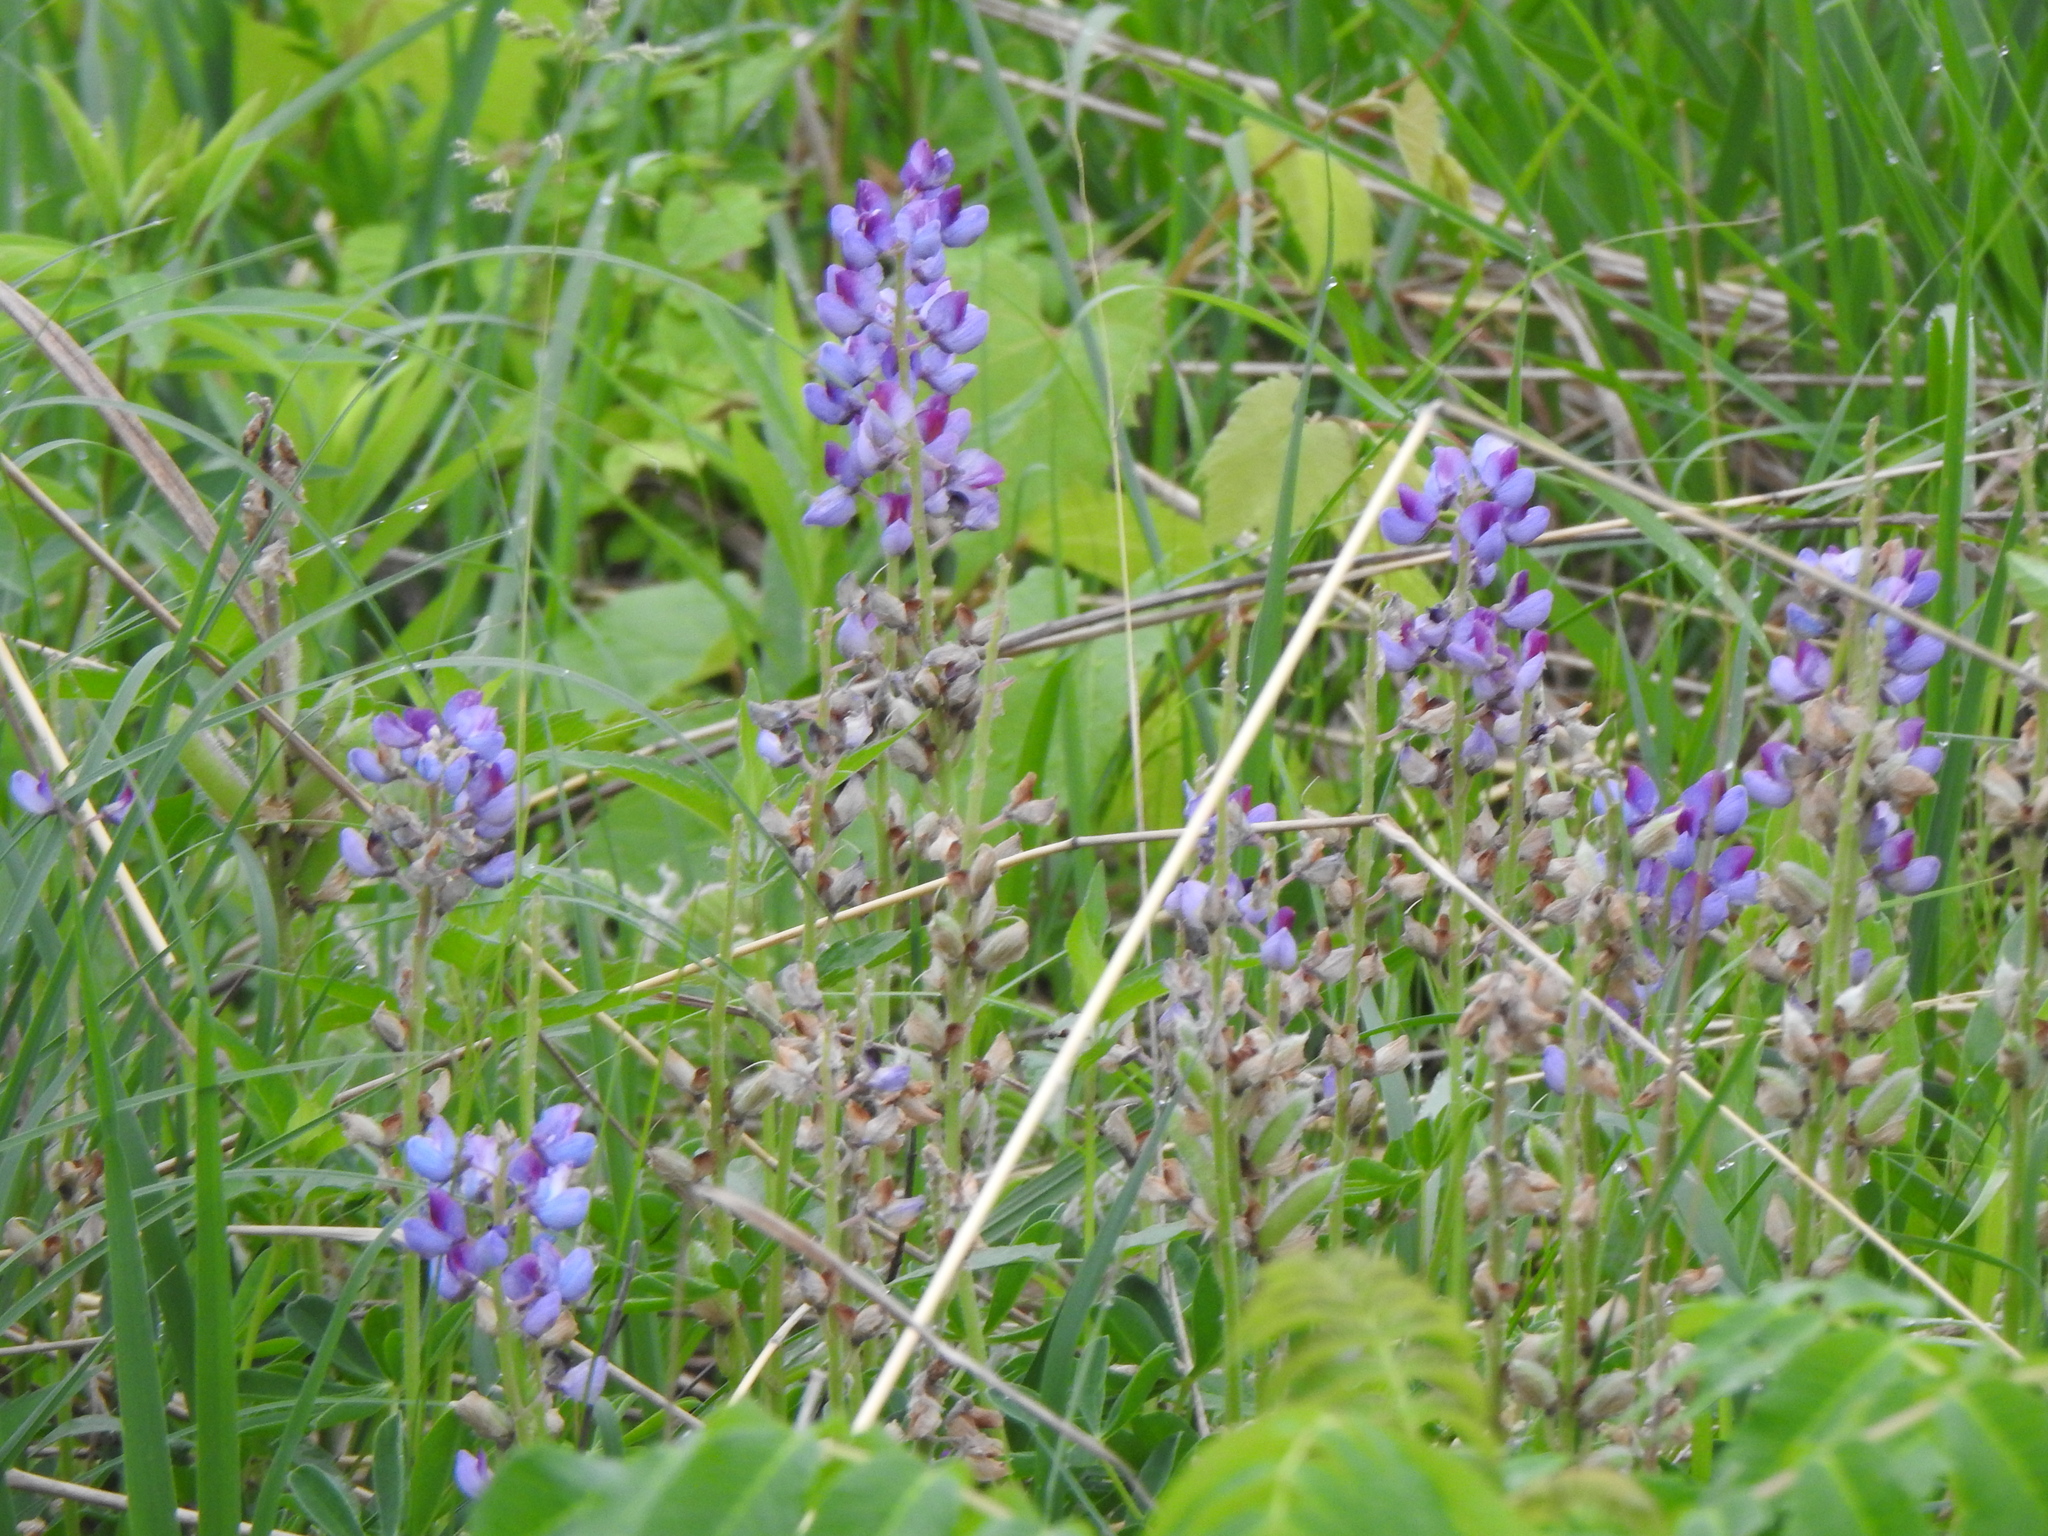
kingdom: Plantae
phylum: Tracheophyta
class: Magnoliopsida
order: Fabales
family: Fabaceae
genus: Lupinus
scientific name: Lupinus perennis
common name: Sundial lupine
